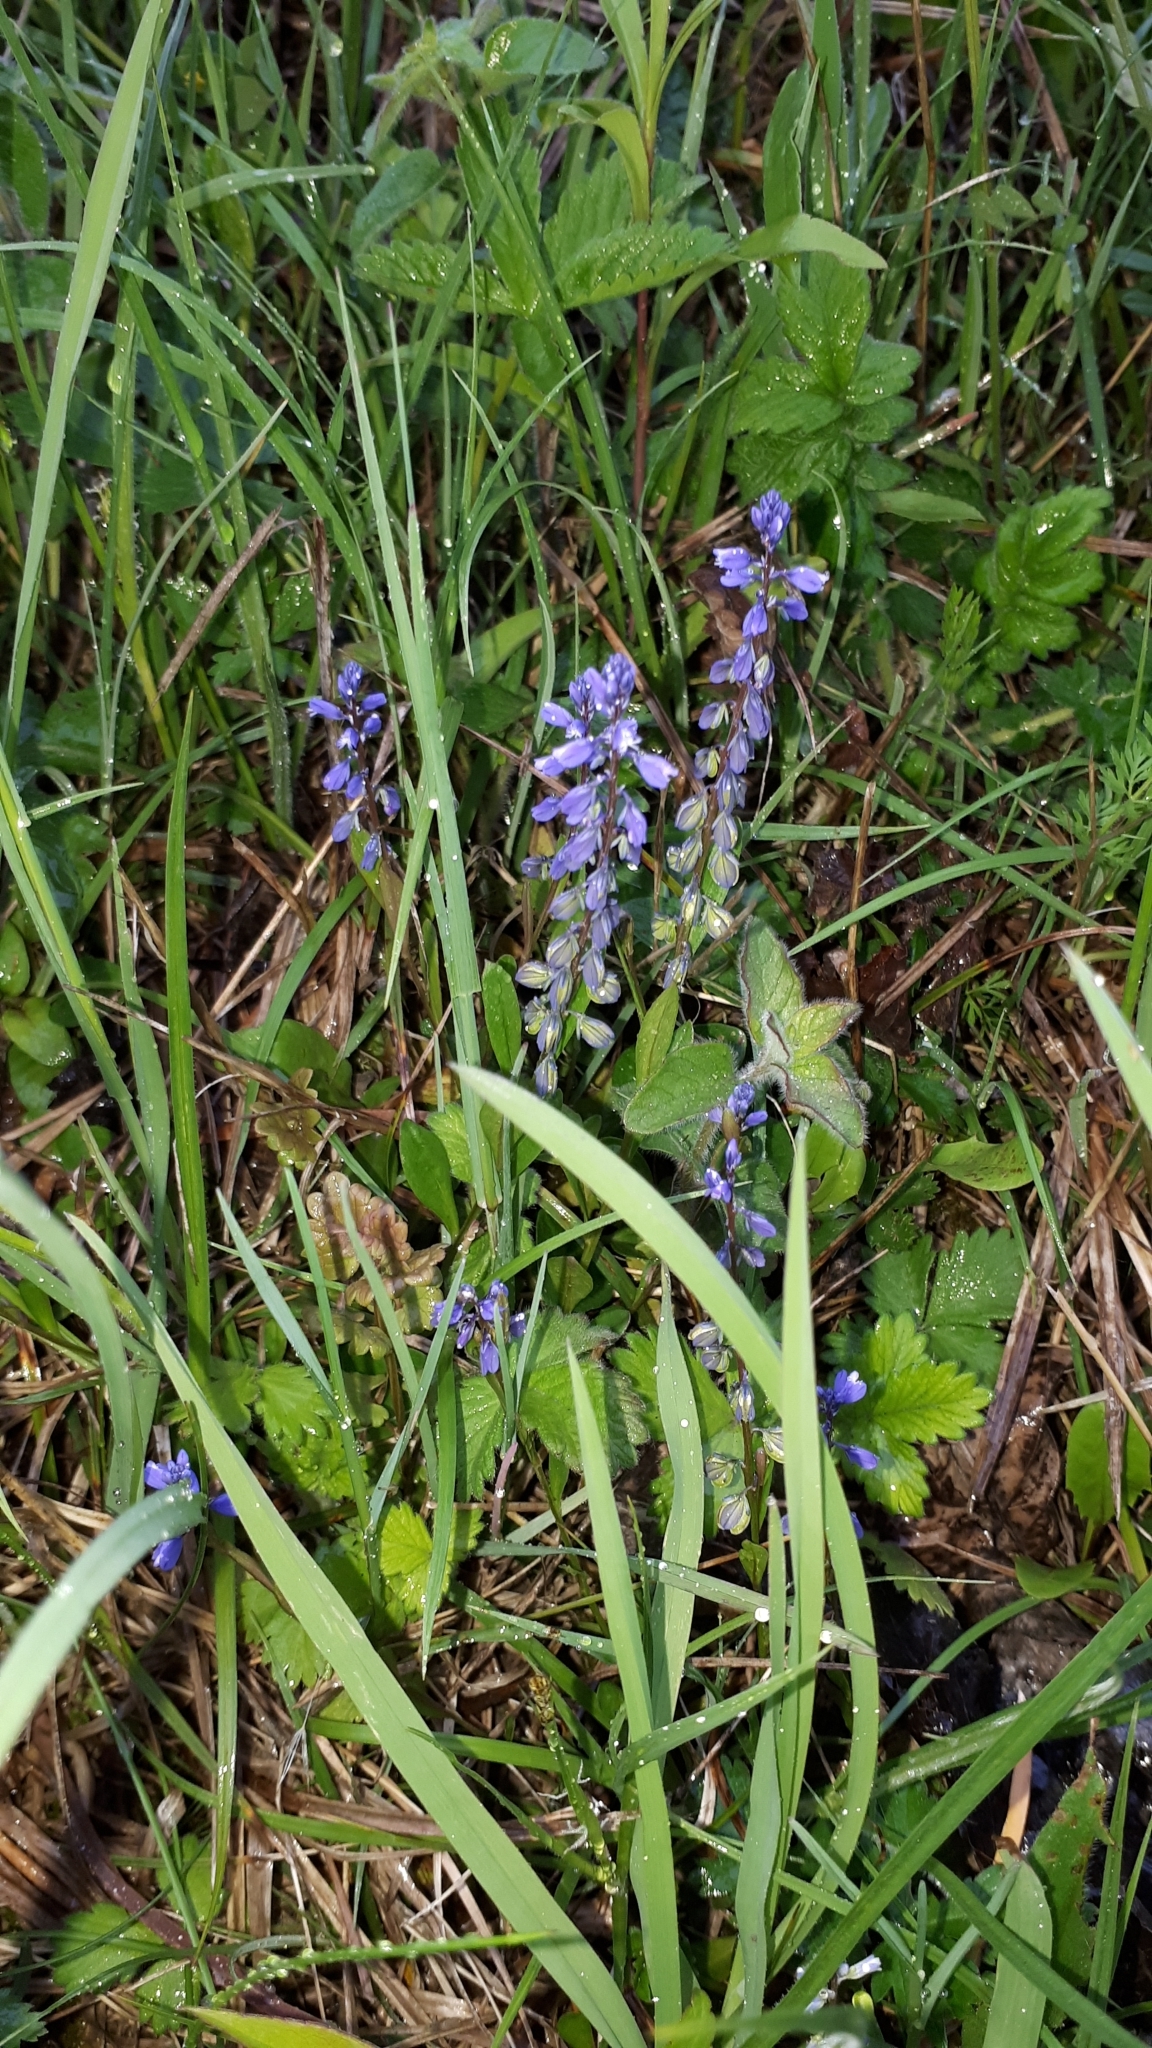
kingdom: Plantae
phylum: Tracheophyta
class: Magnoliopsida
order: Fabales
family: Polygalaceae
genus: Polygala
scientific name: Polygala vulgaris
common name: Common milkwort
